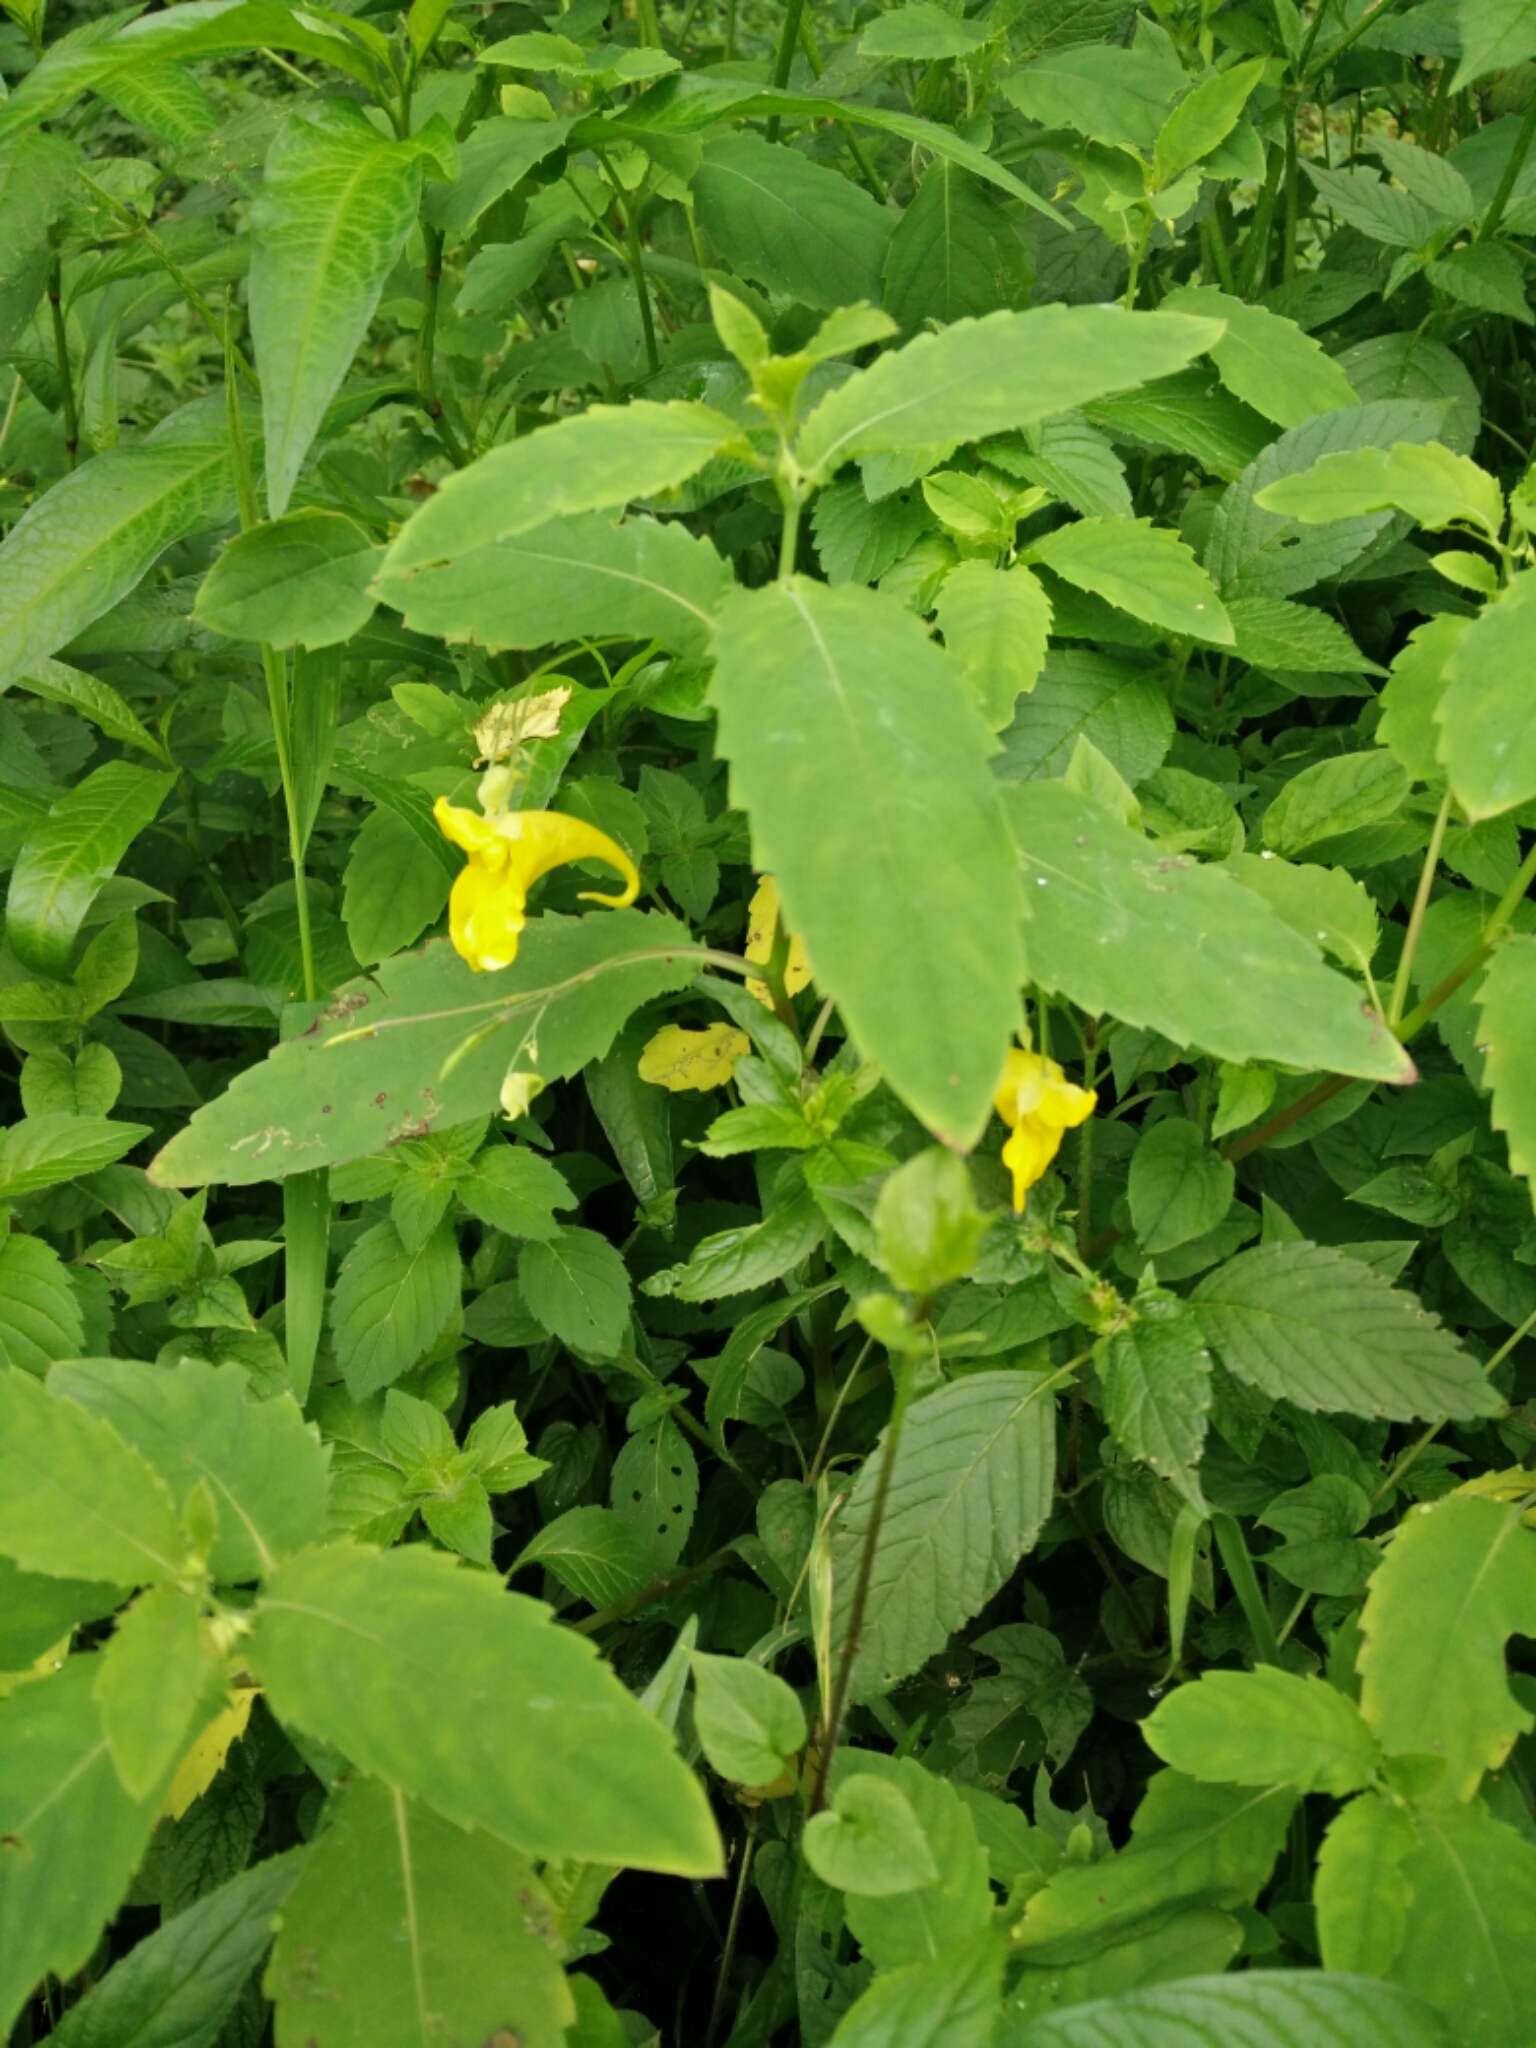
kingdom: Plantae
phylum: Tracheophyta
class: Magnoliopsida
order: Ericales
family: Balsaminaceae
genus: Impatiens
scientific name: Impatiens noli-tangere
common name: Touch-me-not balsam
